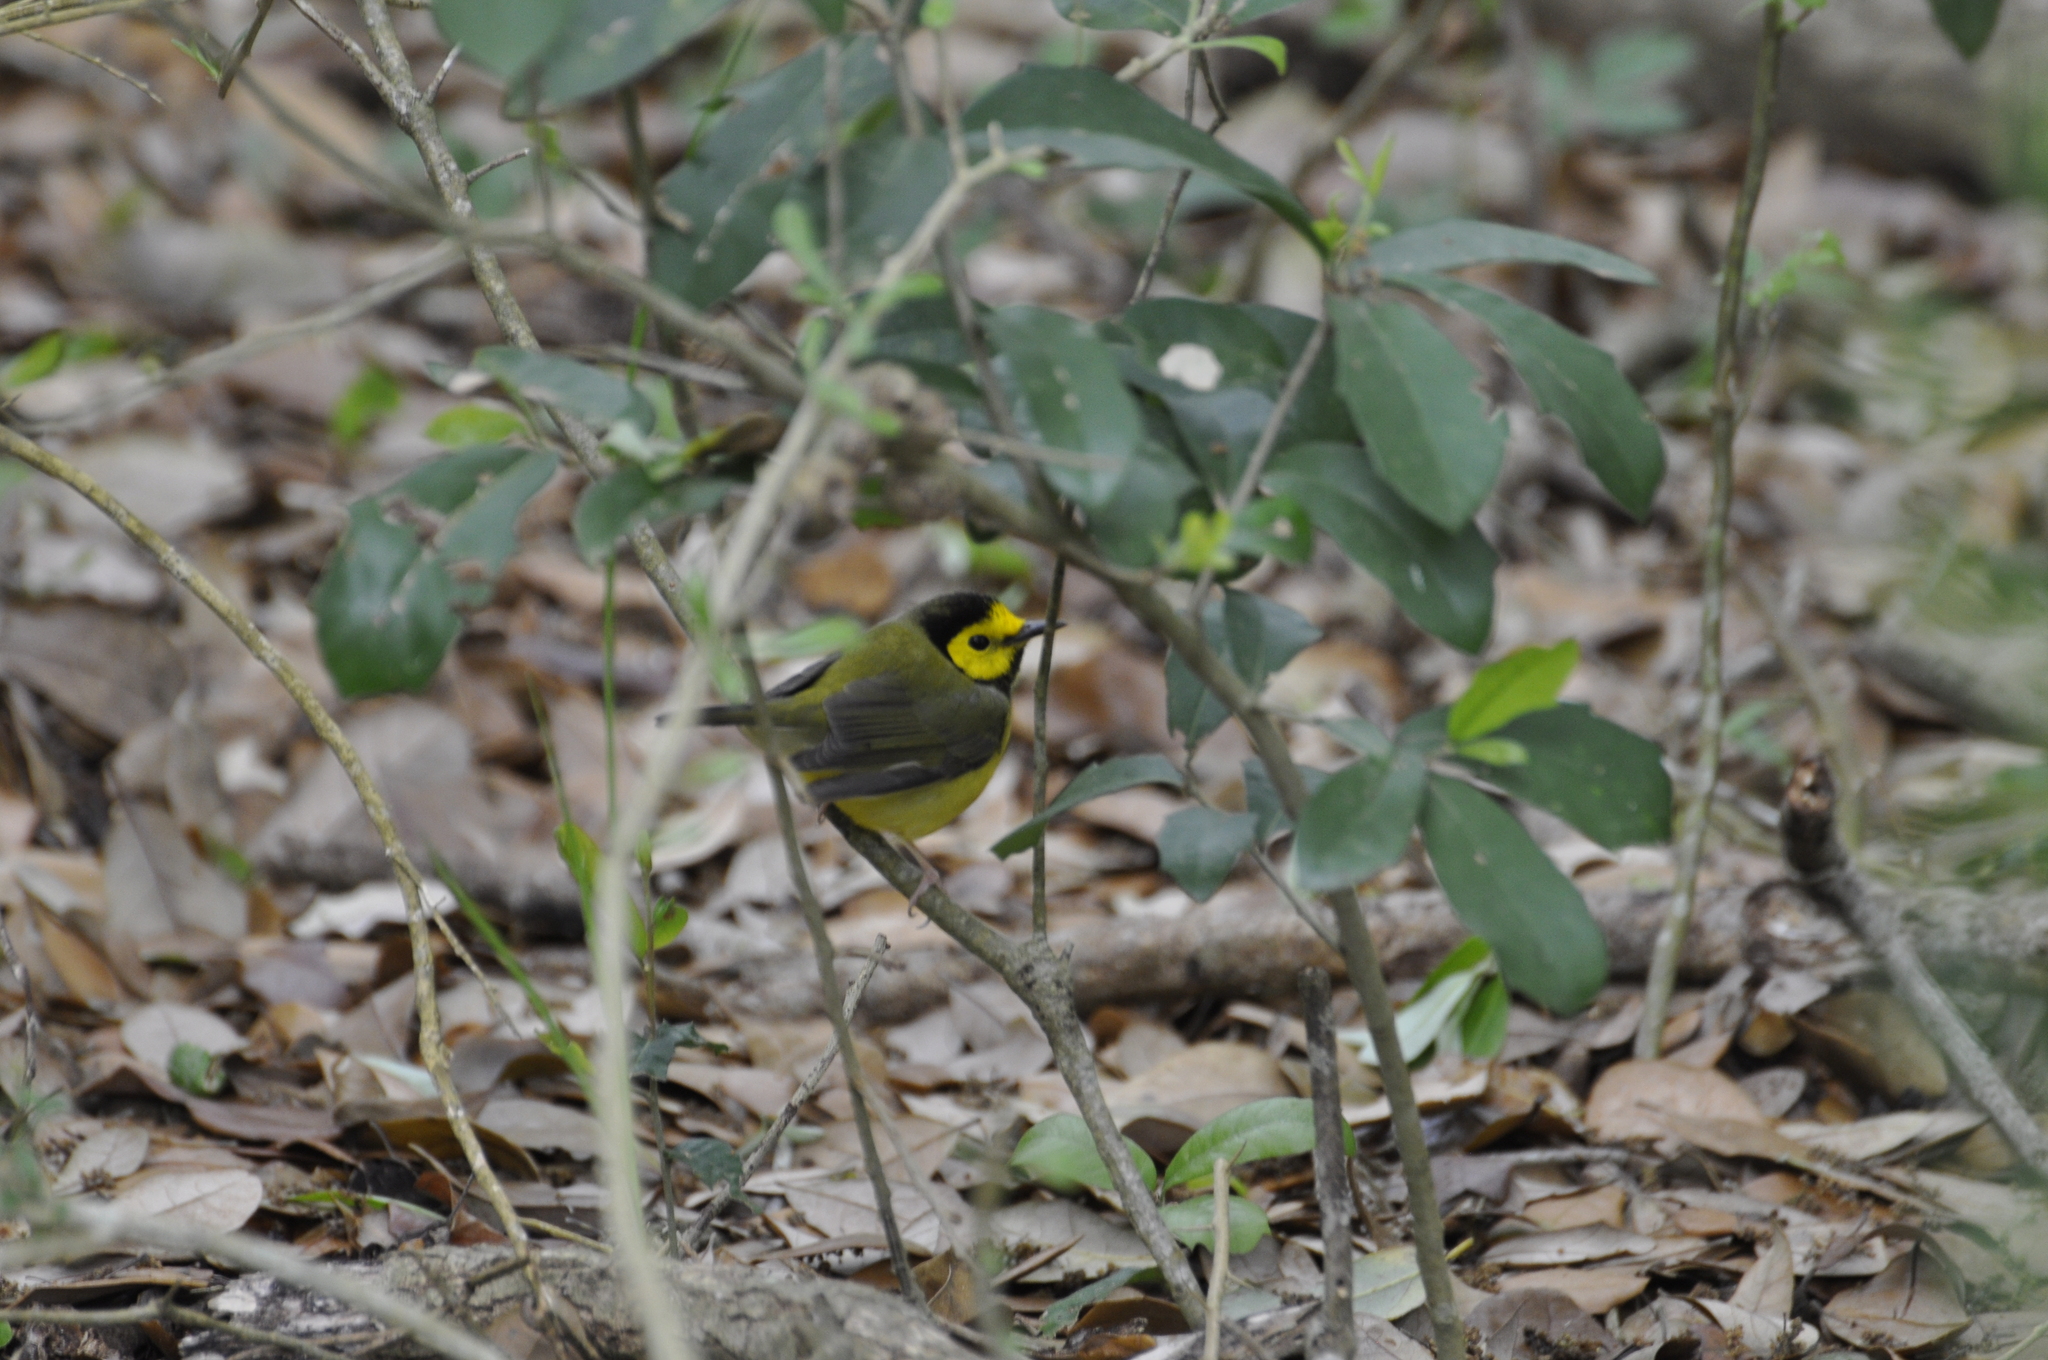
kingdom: Animalia
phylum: Chordata
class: Aves
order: Passeriformes
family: Parulidae
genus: Setophaga
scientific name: Setophaga citrina
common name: Hooded warbler
